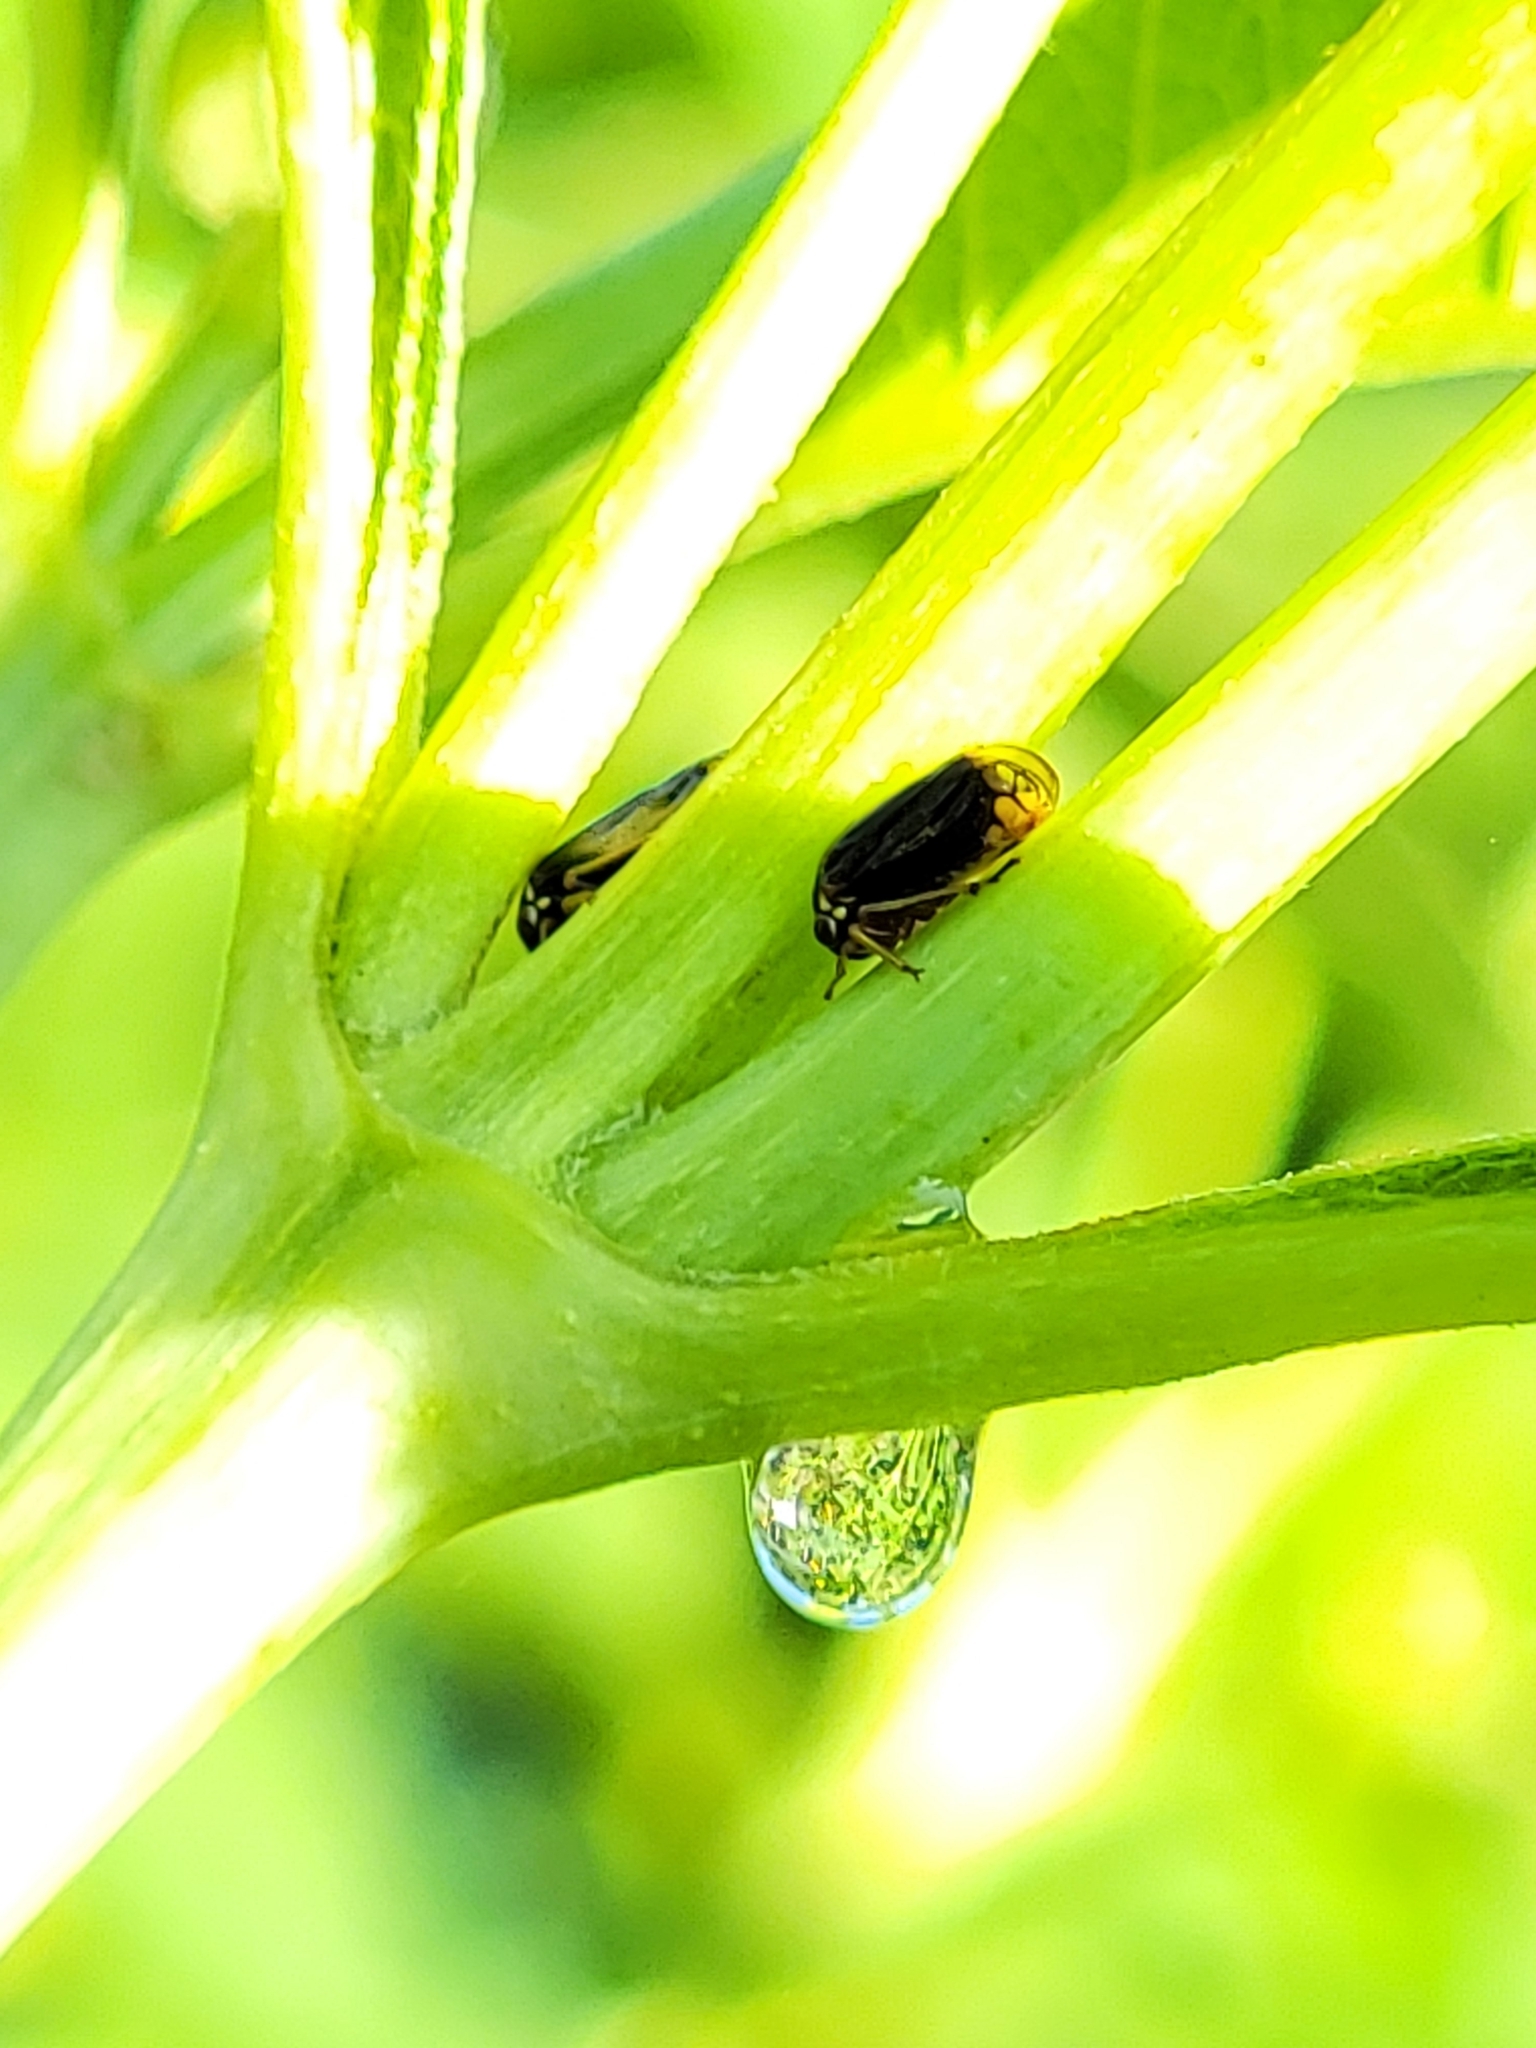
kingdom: Animalia
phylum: Arthropoda
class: Insecta
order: Hemiptera
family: Membracidae
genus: Acutalis
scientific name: Acutalis tartarea
